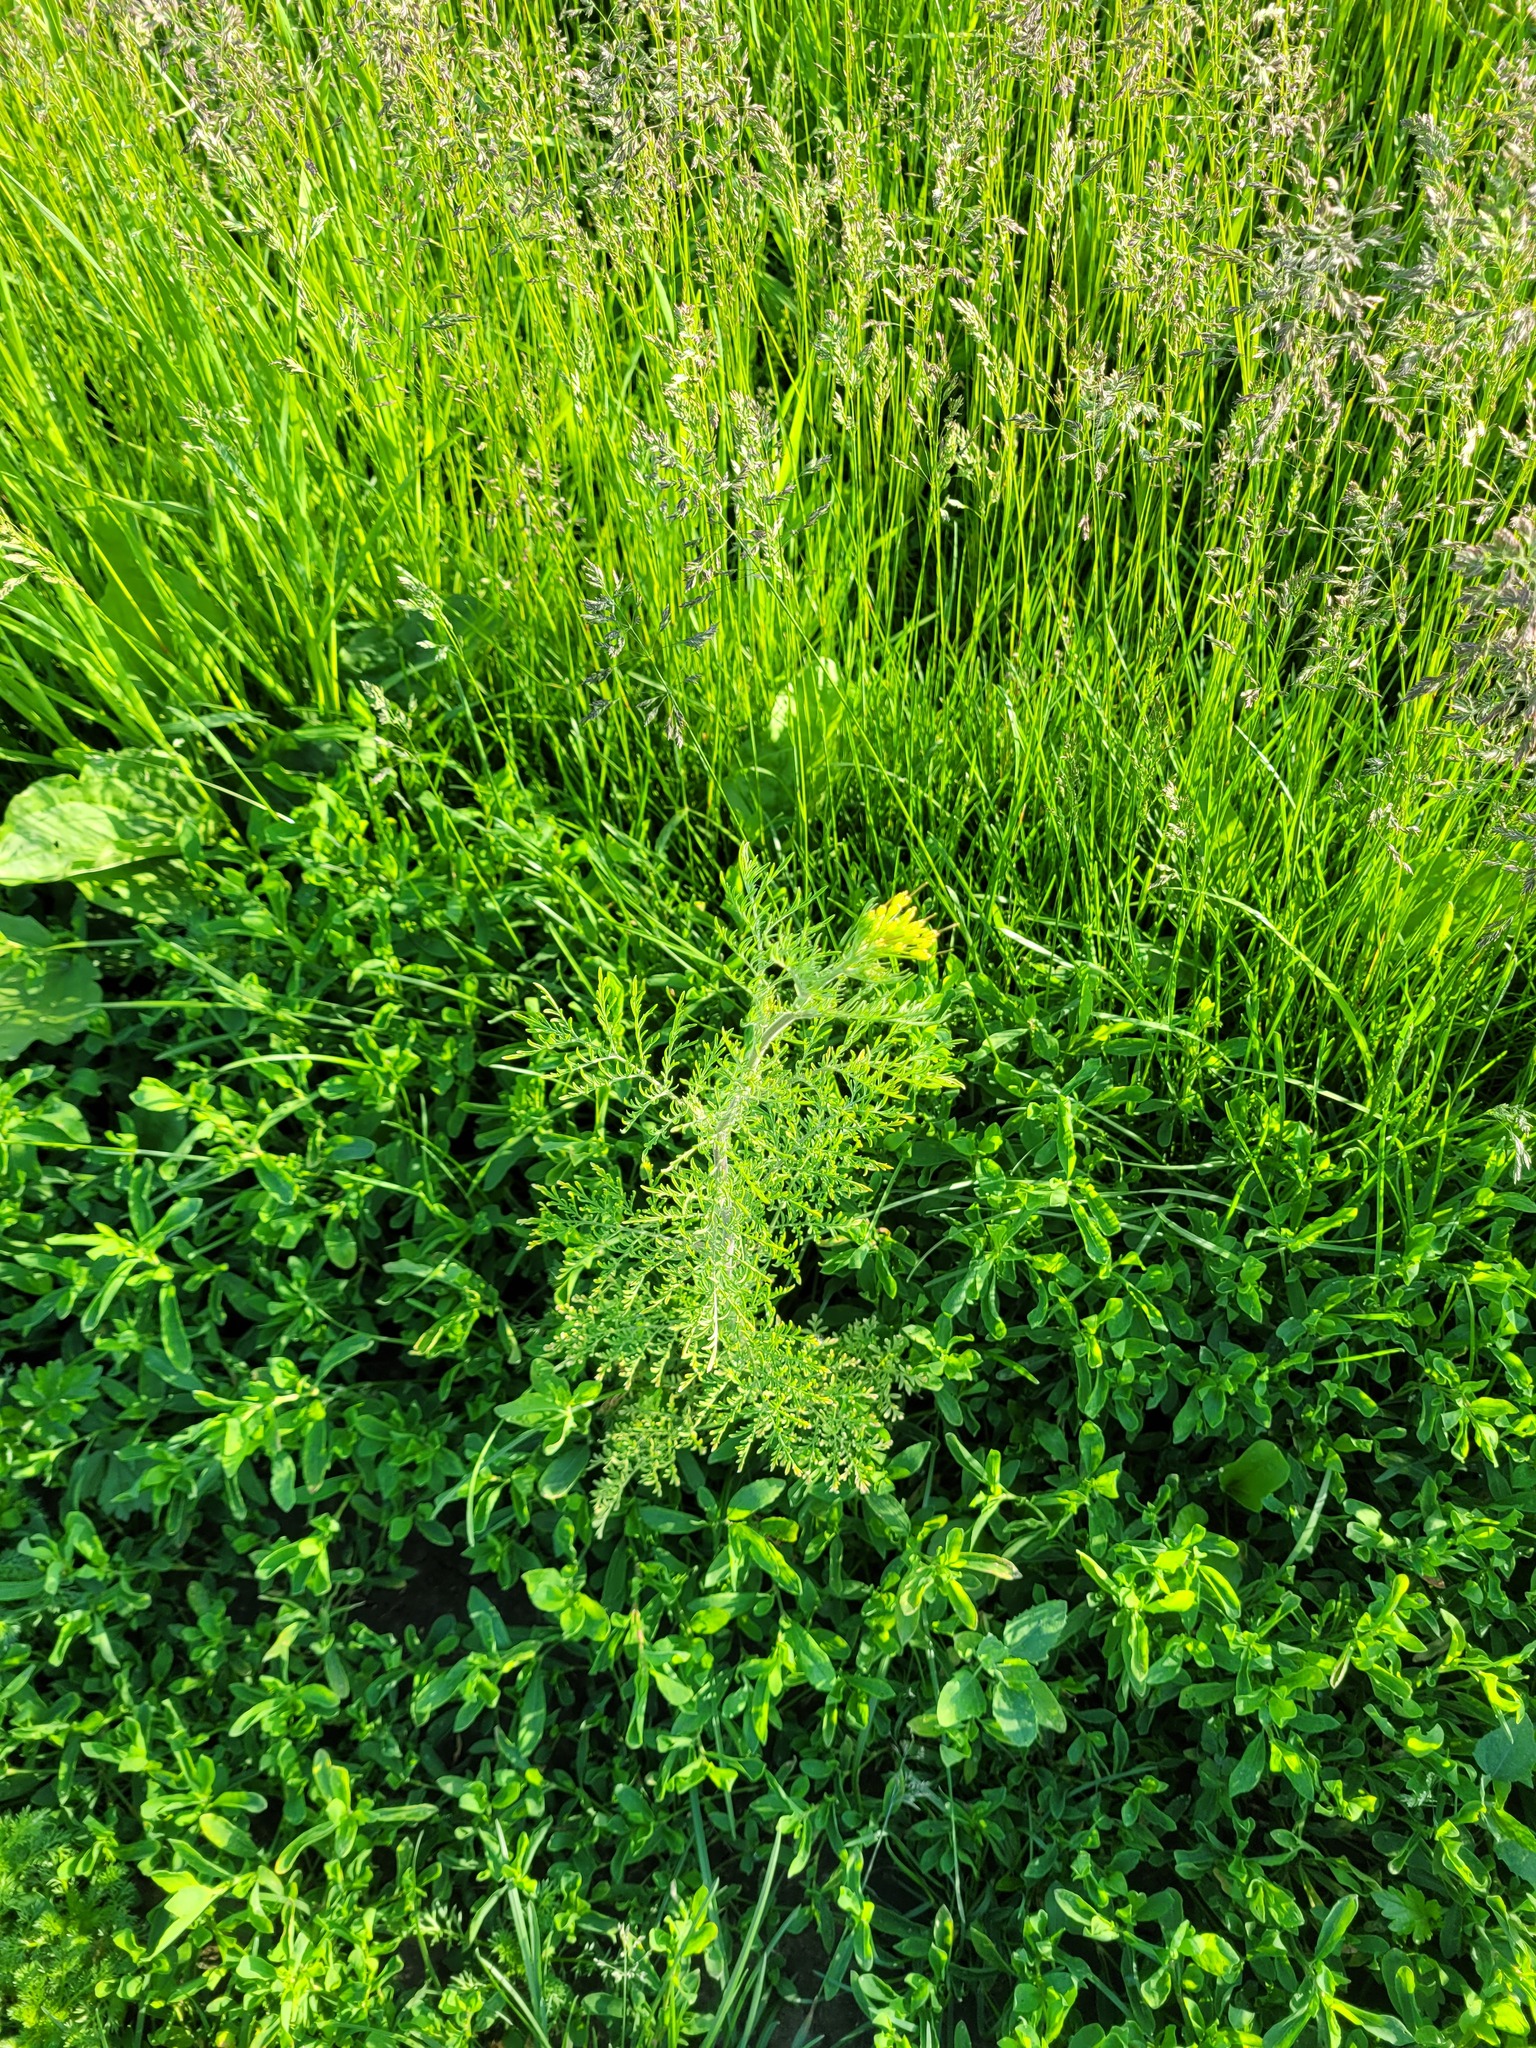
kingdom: Plantae
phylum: Tracheophyta
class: Magnoliopsida
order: Brassicales
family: Brassicaceae
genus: Descurainia
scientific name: Descurainia sophia
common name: Flixweed
